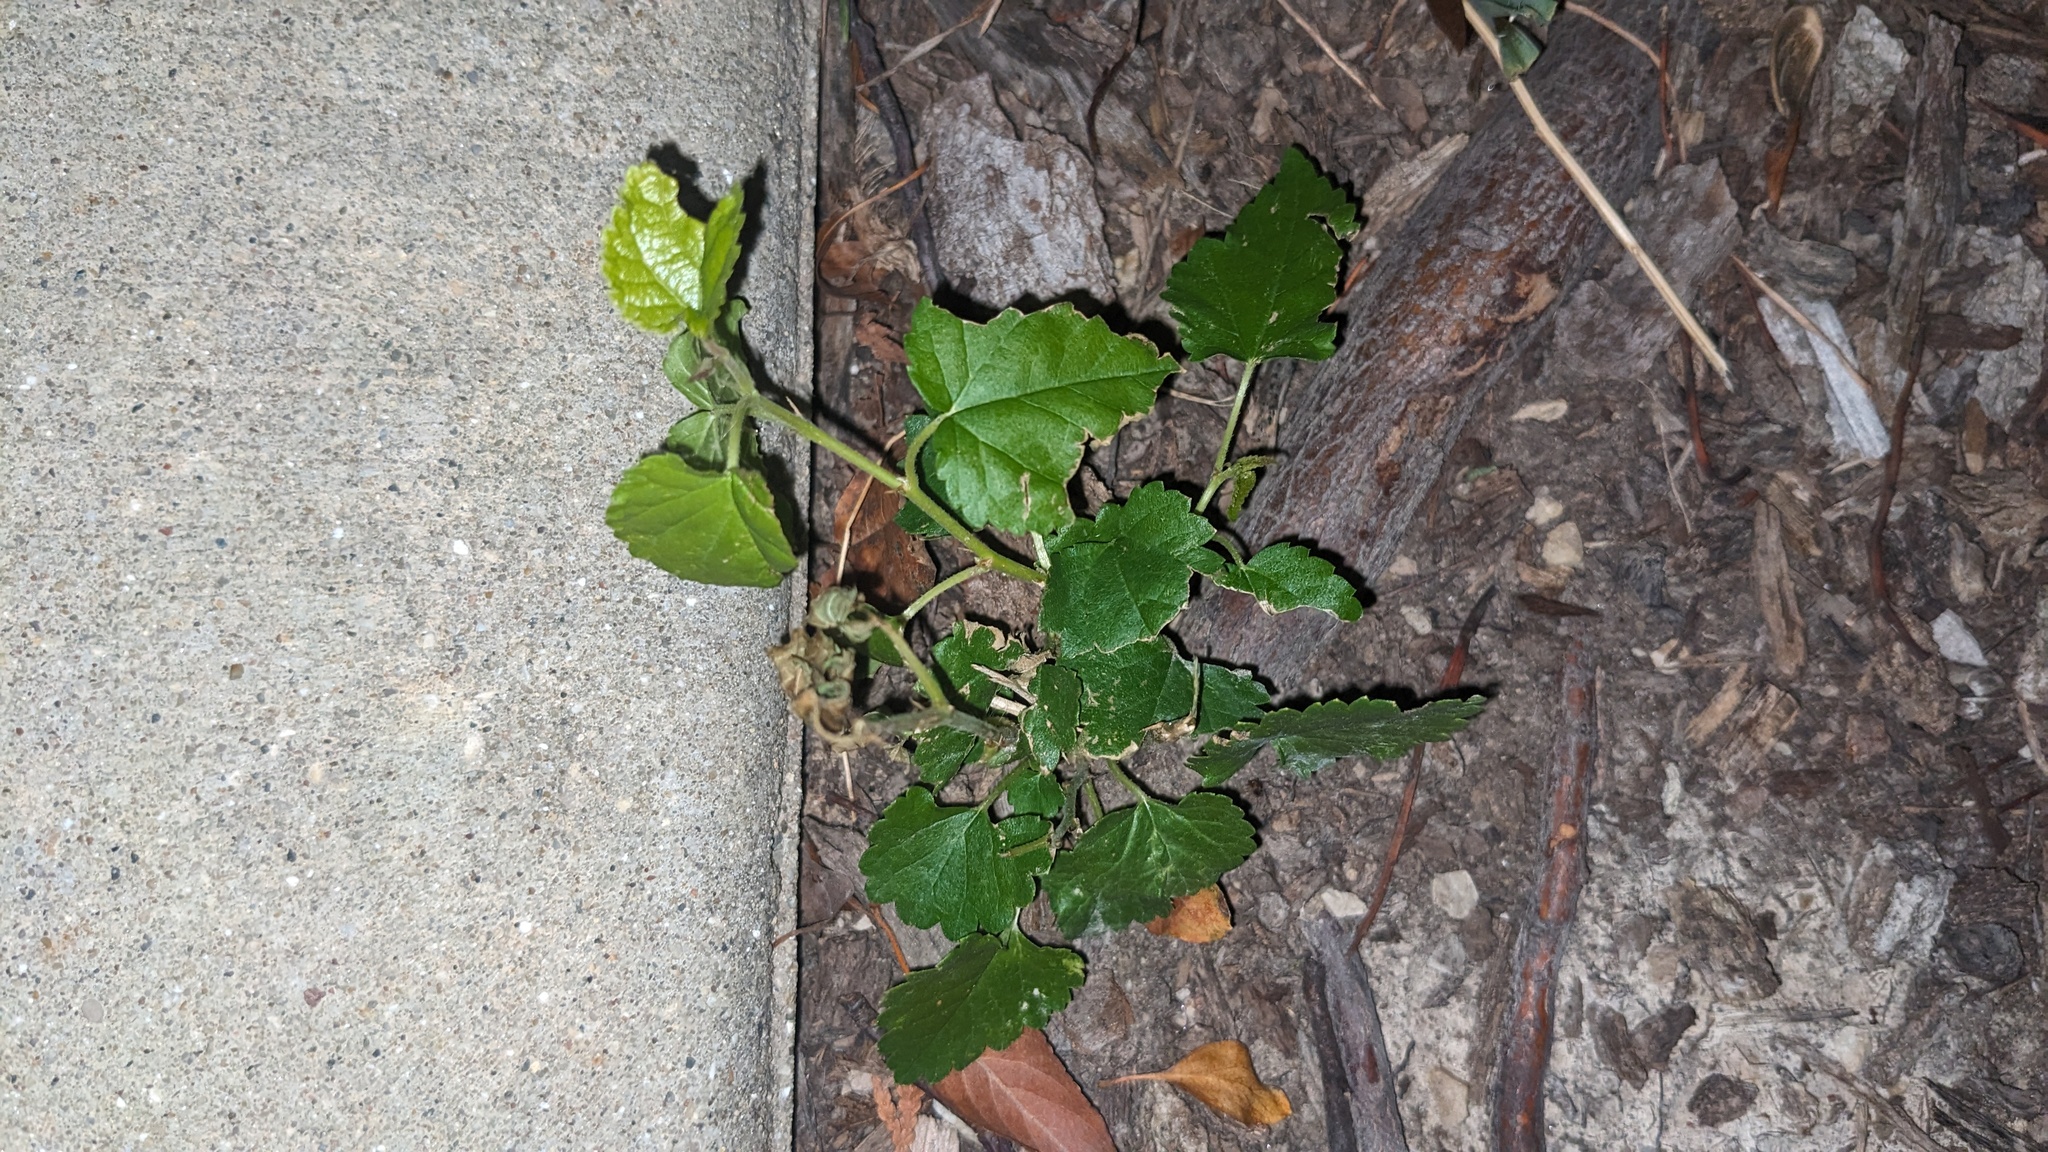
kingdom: Plantae
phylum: Tracheophyta
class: Magnoliopsida
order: Rosales
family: Moraceae
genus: Morus
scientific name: Morus alba
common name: White mulberry
